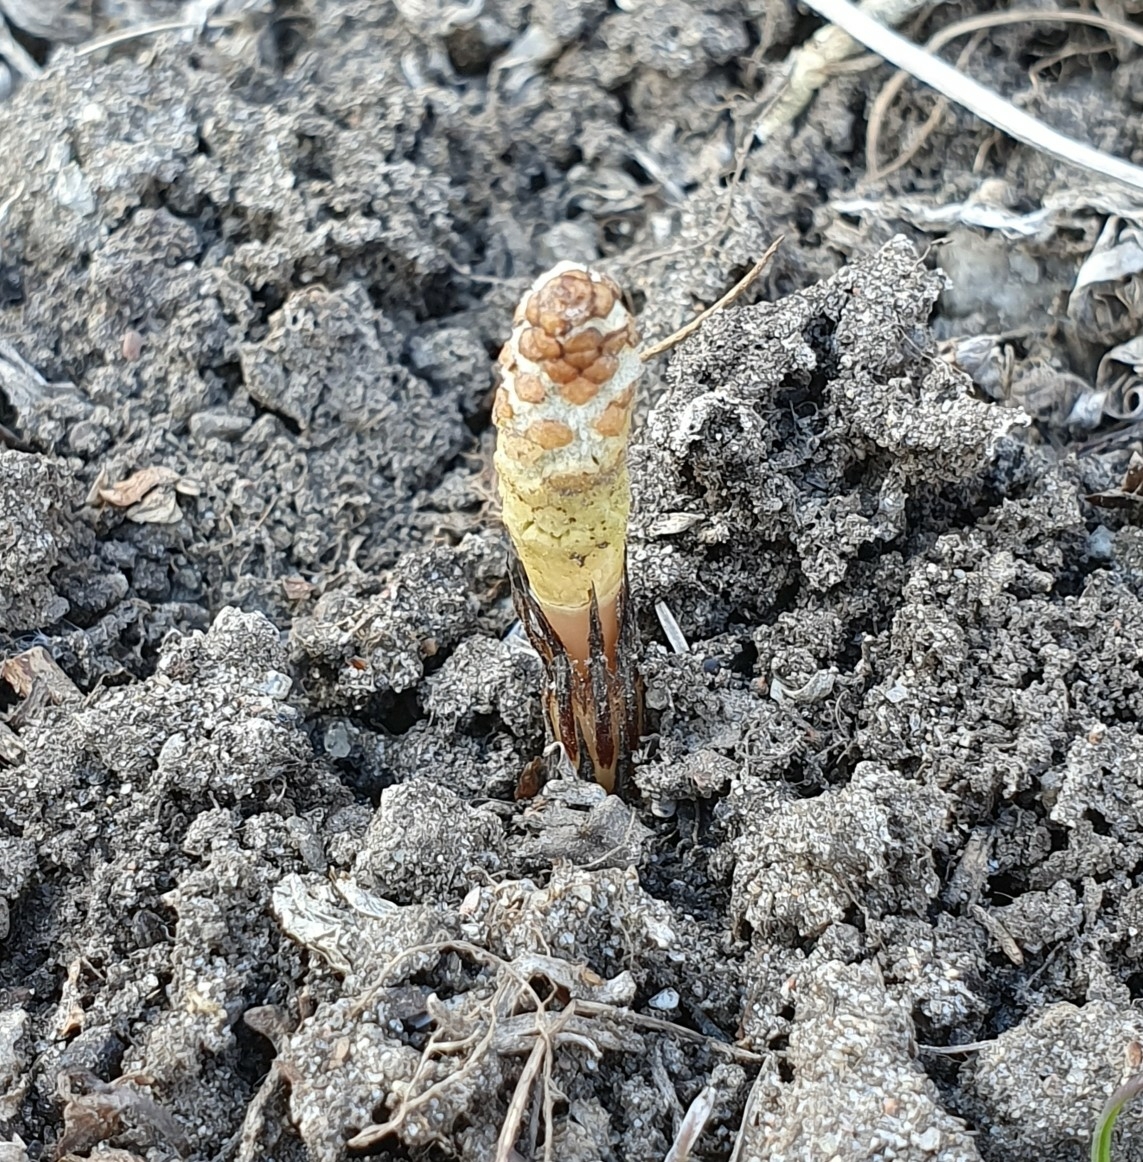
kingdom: Plantae
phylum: Tracheophyta
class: Polypodiopsida
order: Equisetales
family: Equisetaceae
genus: Equisetum
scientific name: Equisetum arvense
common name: Field horsetail
